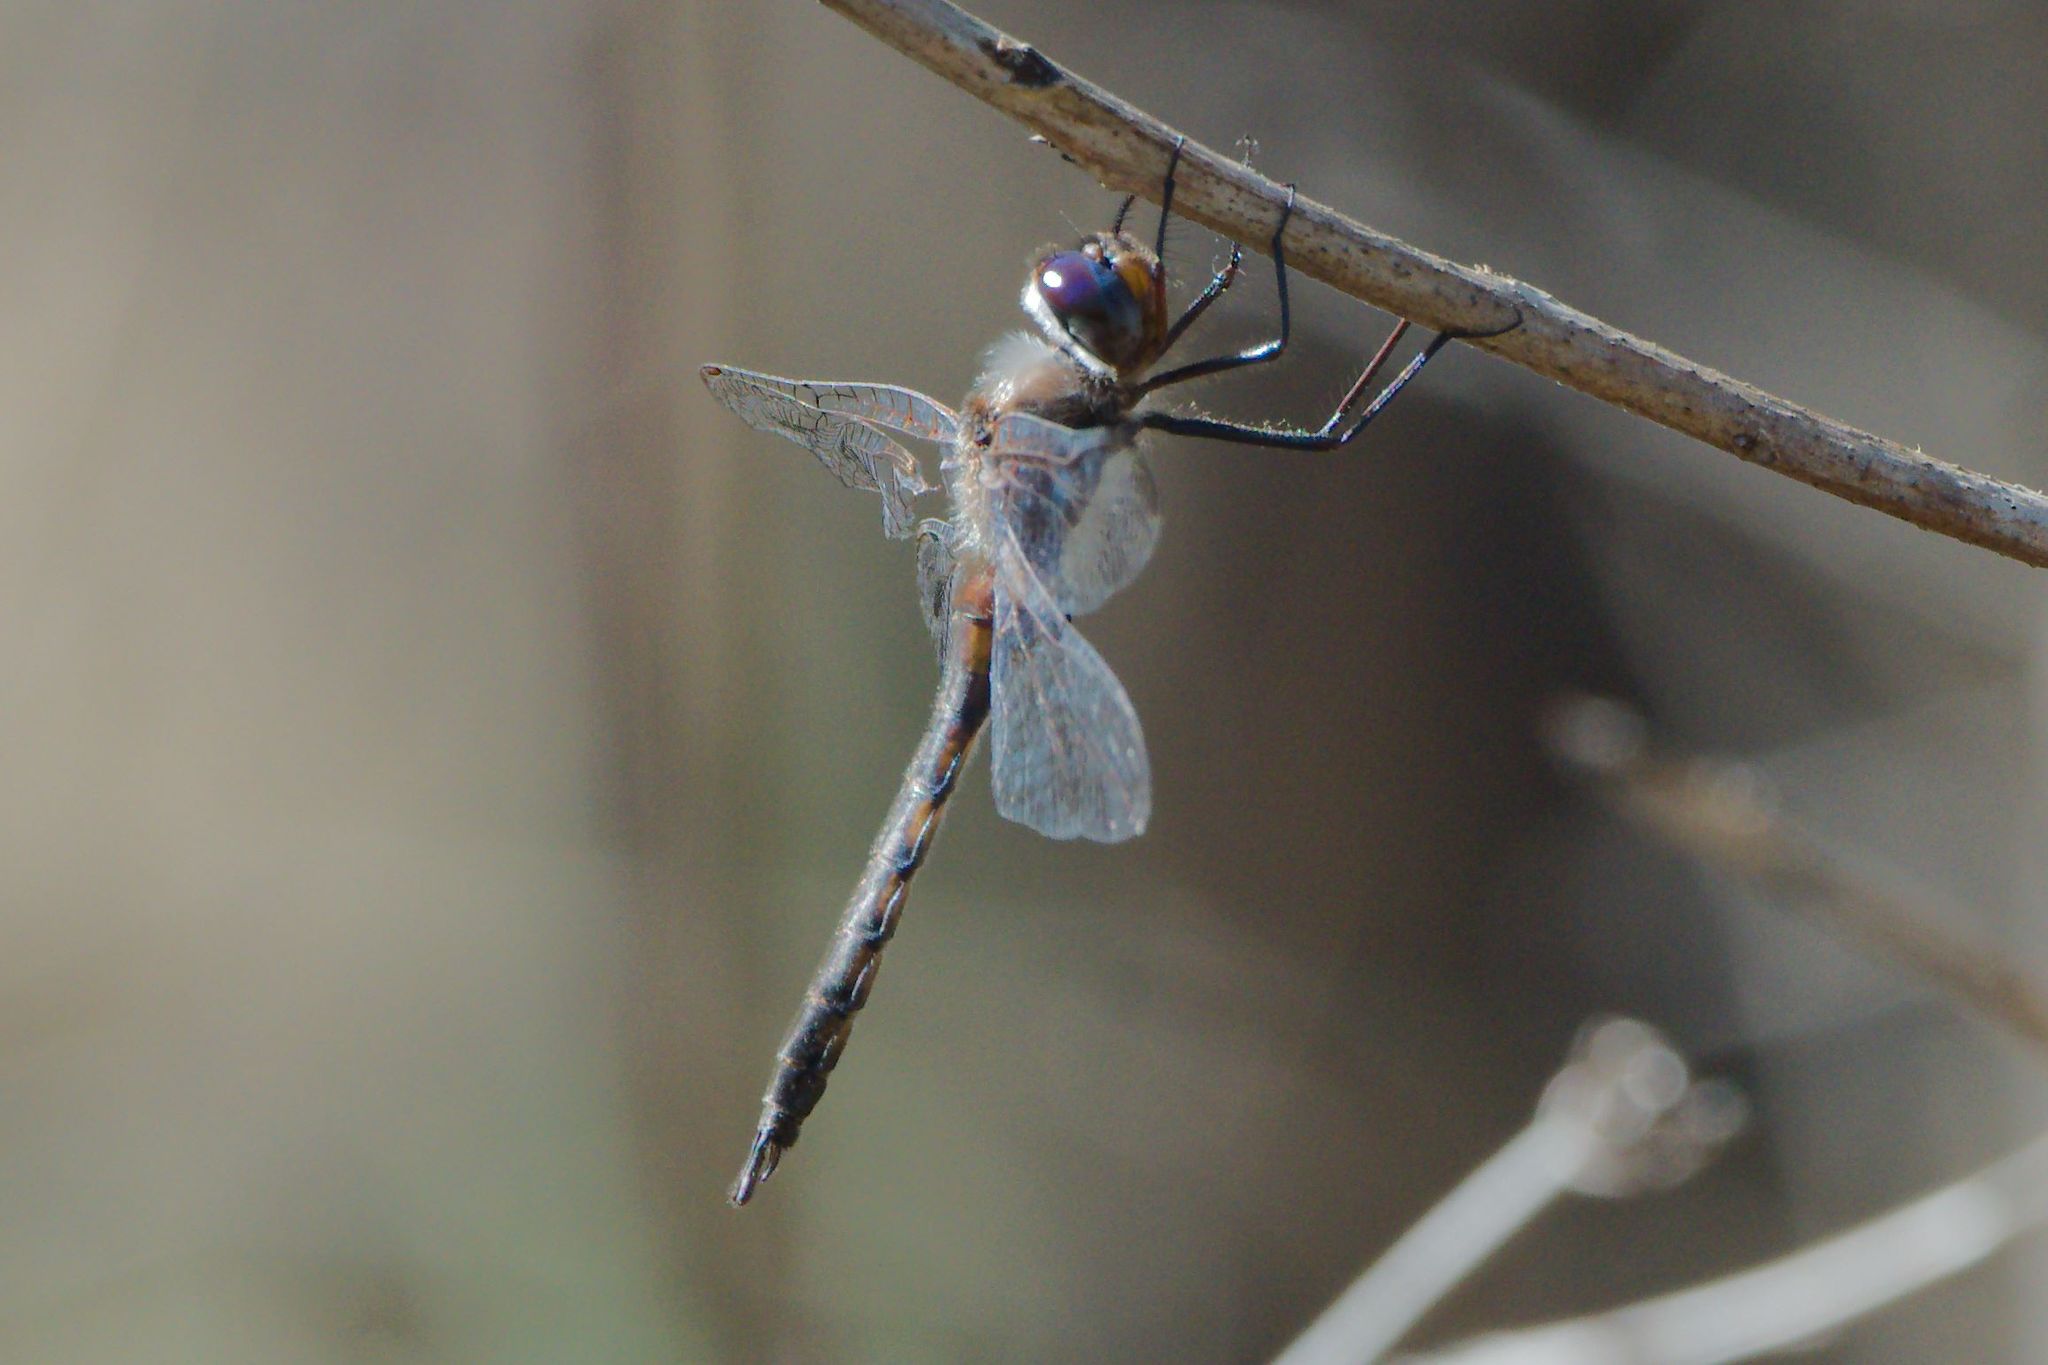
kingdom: Animalia
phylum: Arthropoda
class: Insecta
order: Odonata
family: Corduliidae
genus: Epitheca
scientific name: Epitheca cynosura
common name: Common baskettail
